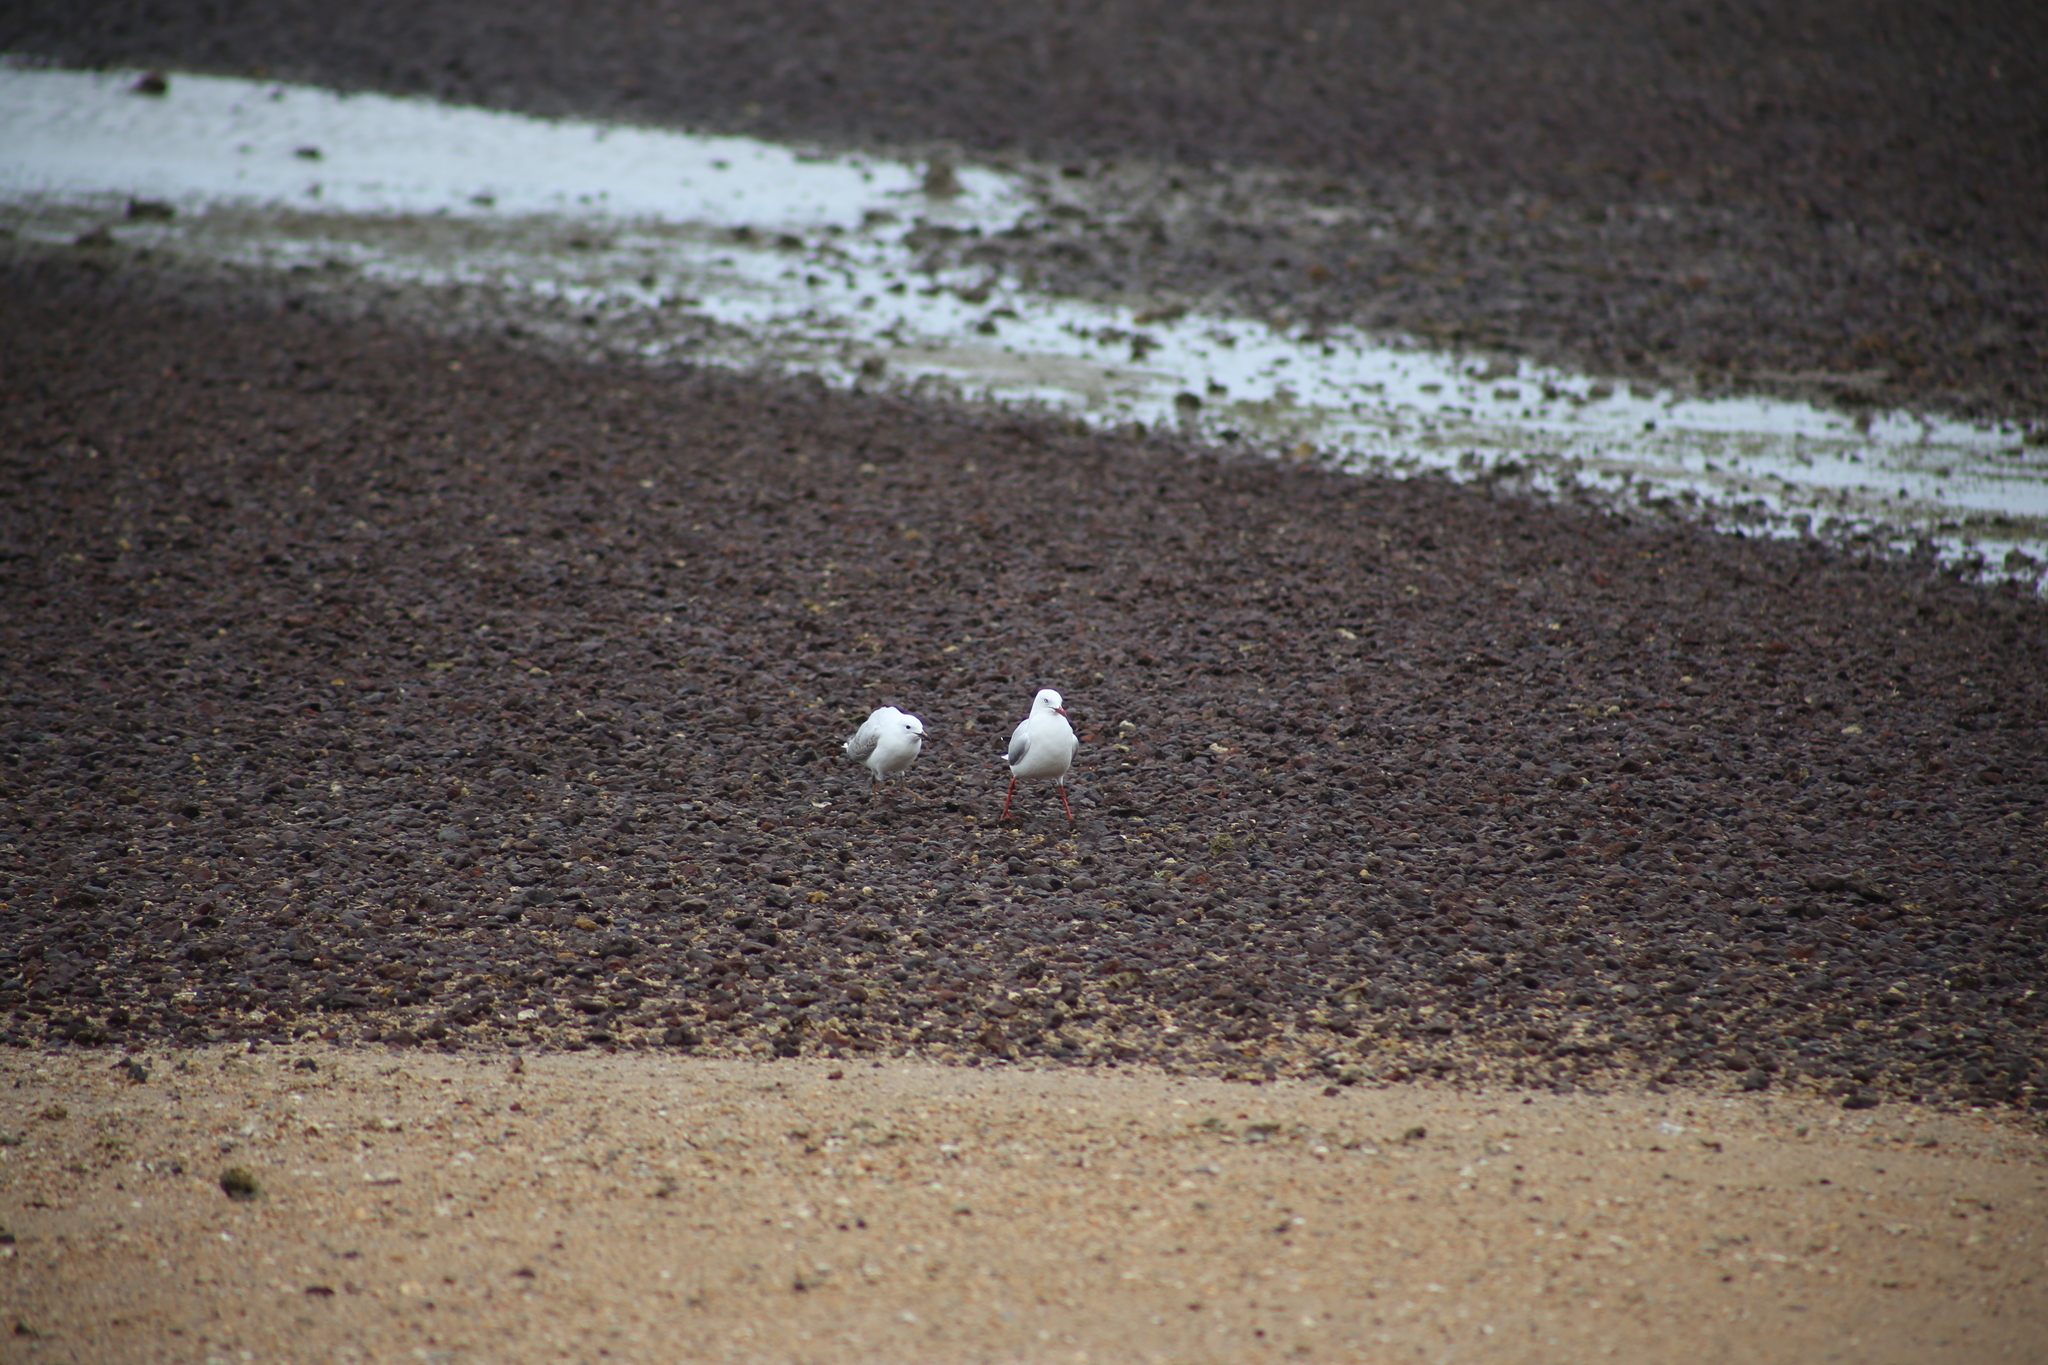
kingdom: Animalia
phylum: Chordata
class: Aves
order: Charadriiformes
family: Laridae
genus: Chroicocephalus
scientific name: Chroicocephalus novaehollandiae
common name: Silver gull
